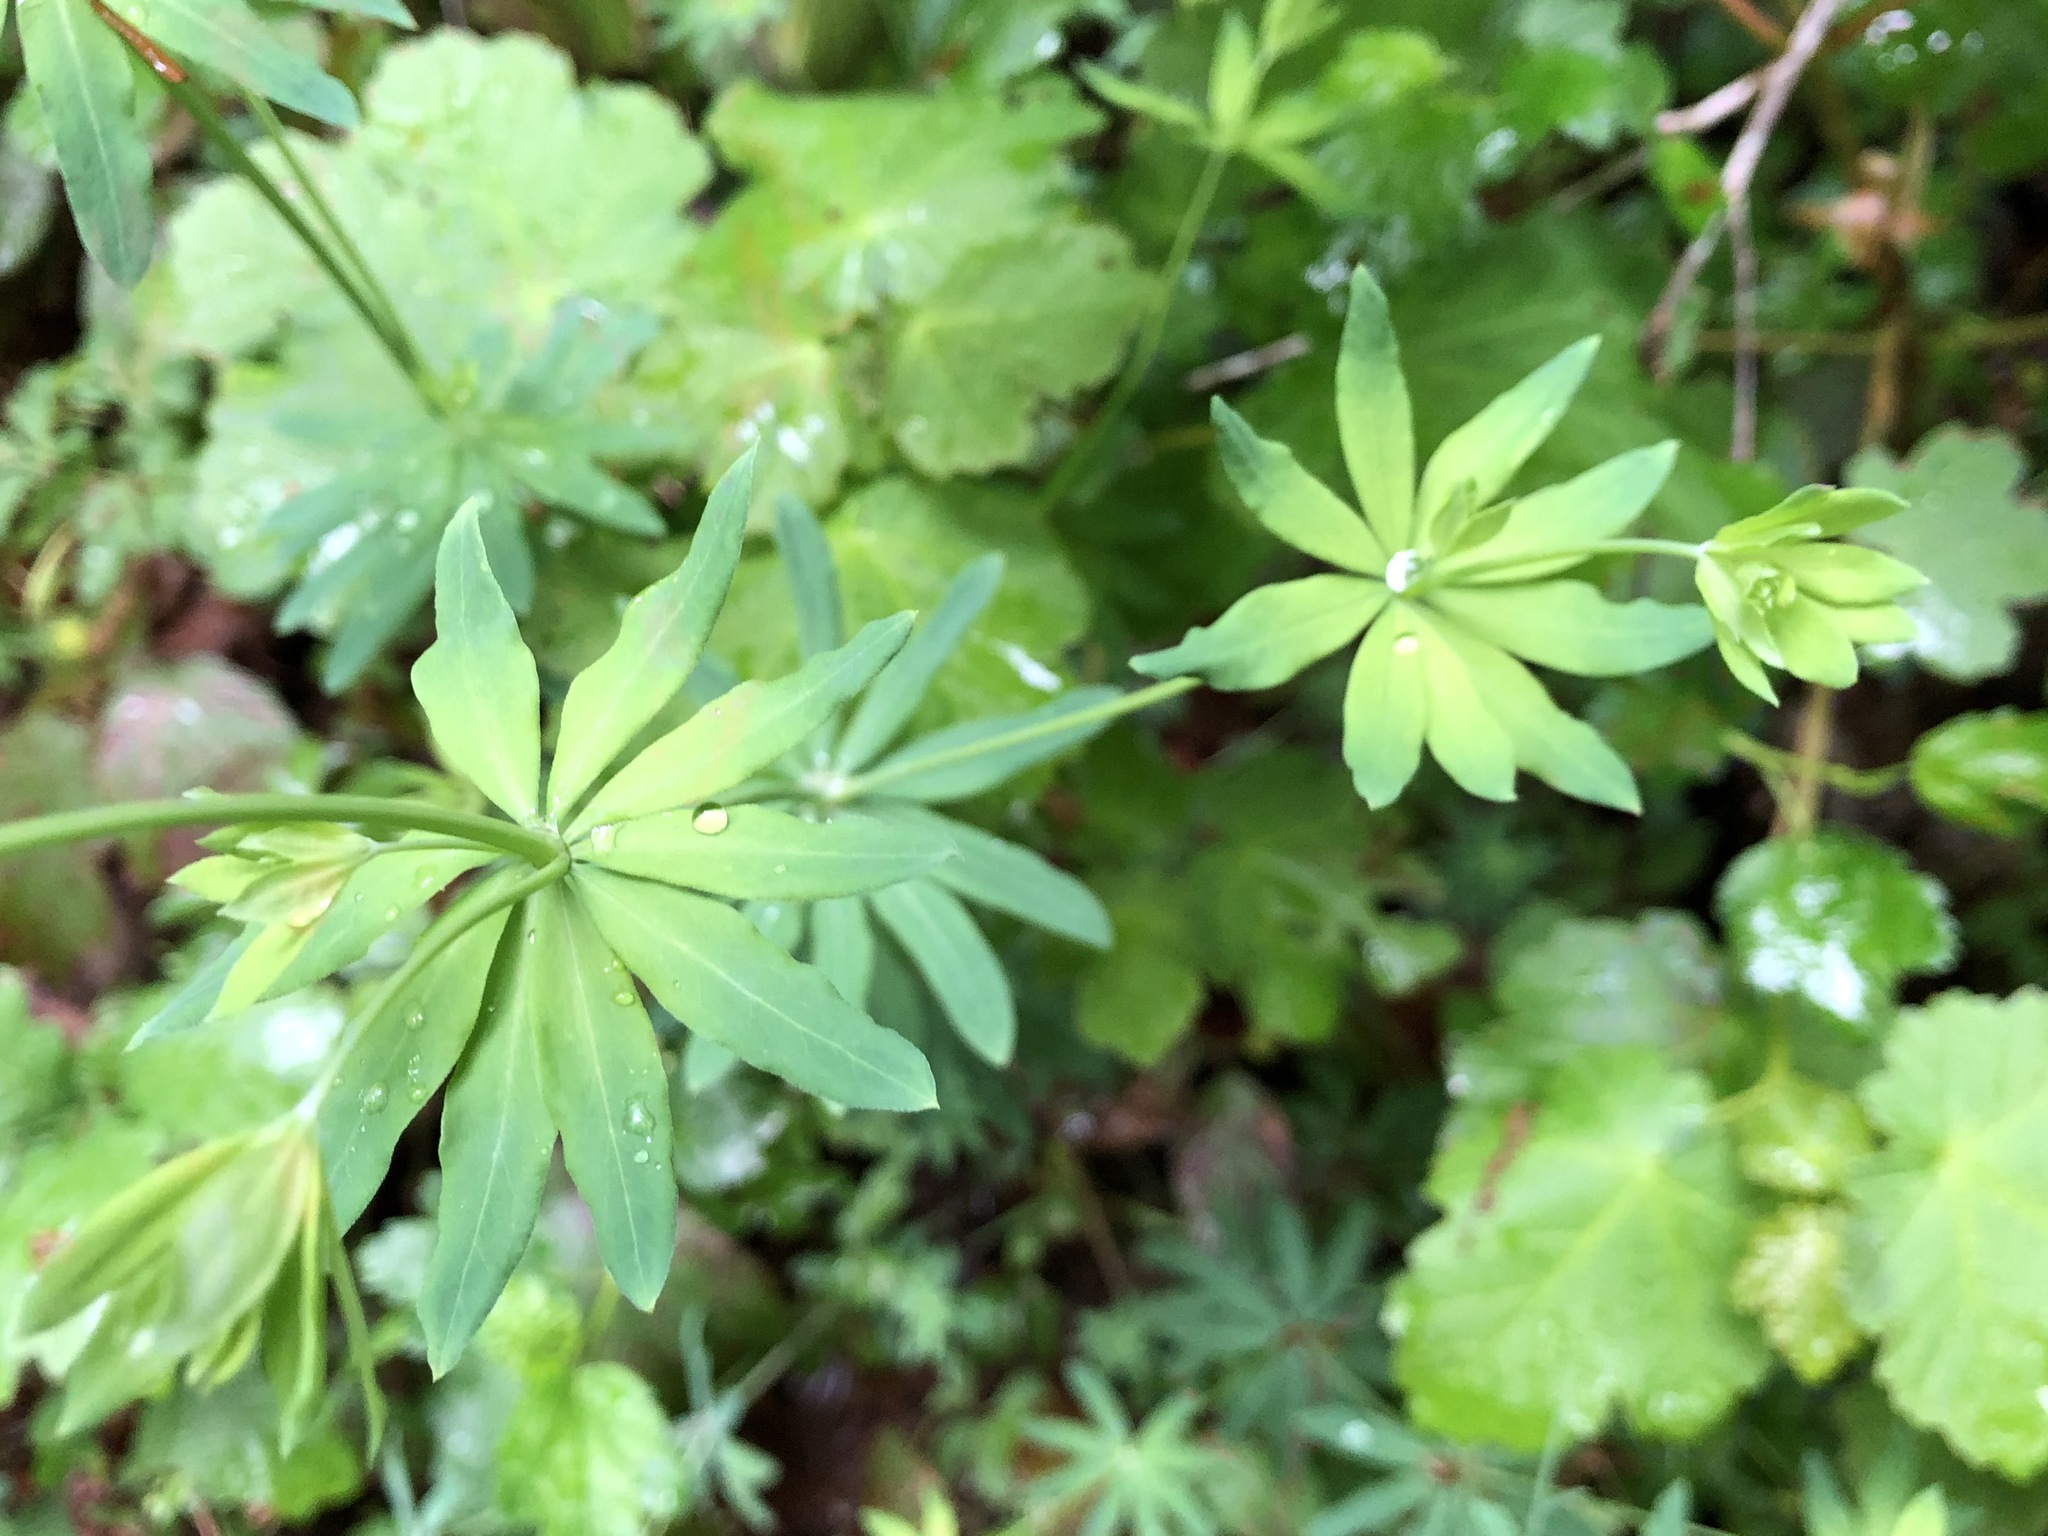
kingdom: Plantae
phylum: Tracheophyta
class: Magnoliopsida
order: Gentianales
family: Rubiaceae
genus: Galium
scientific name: Galium sylvaticum
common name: Wood bedstraw
